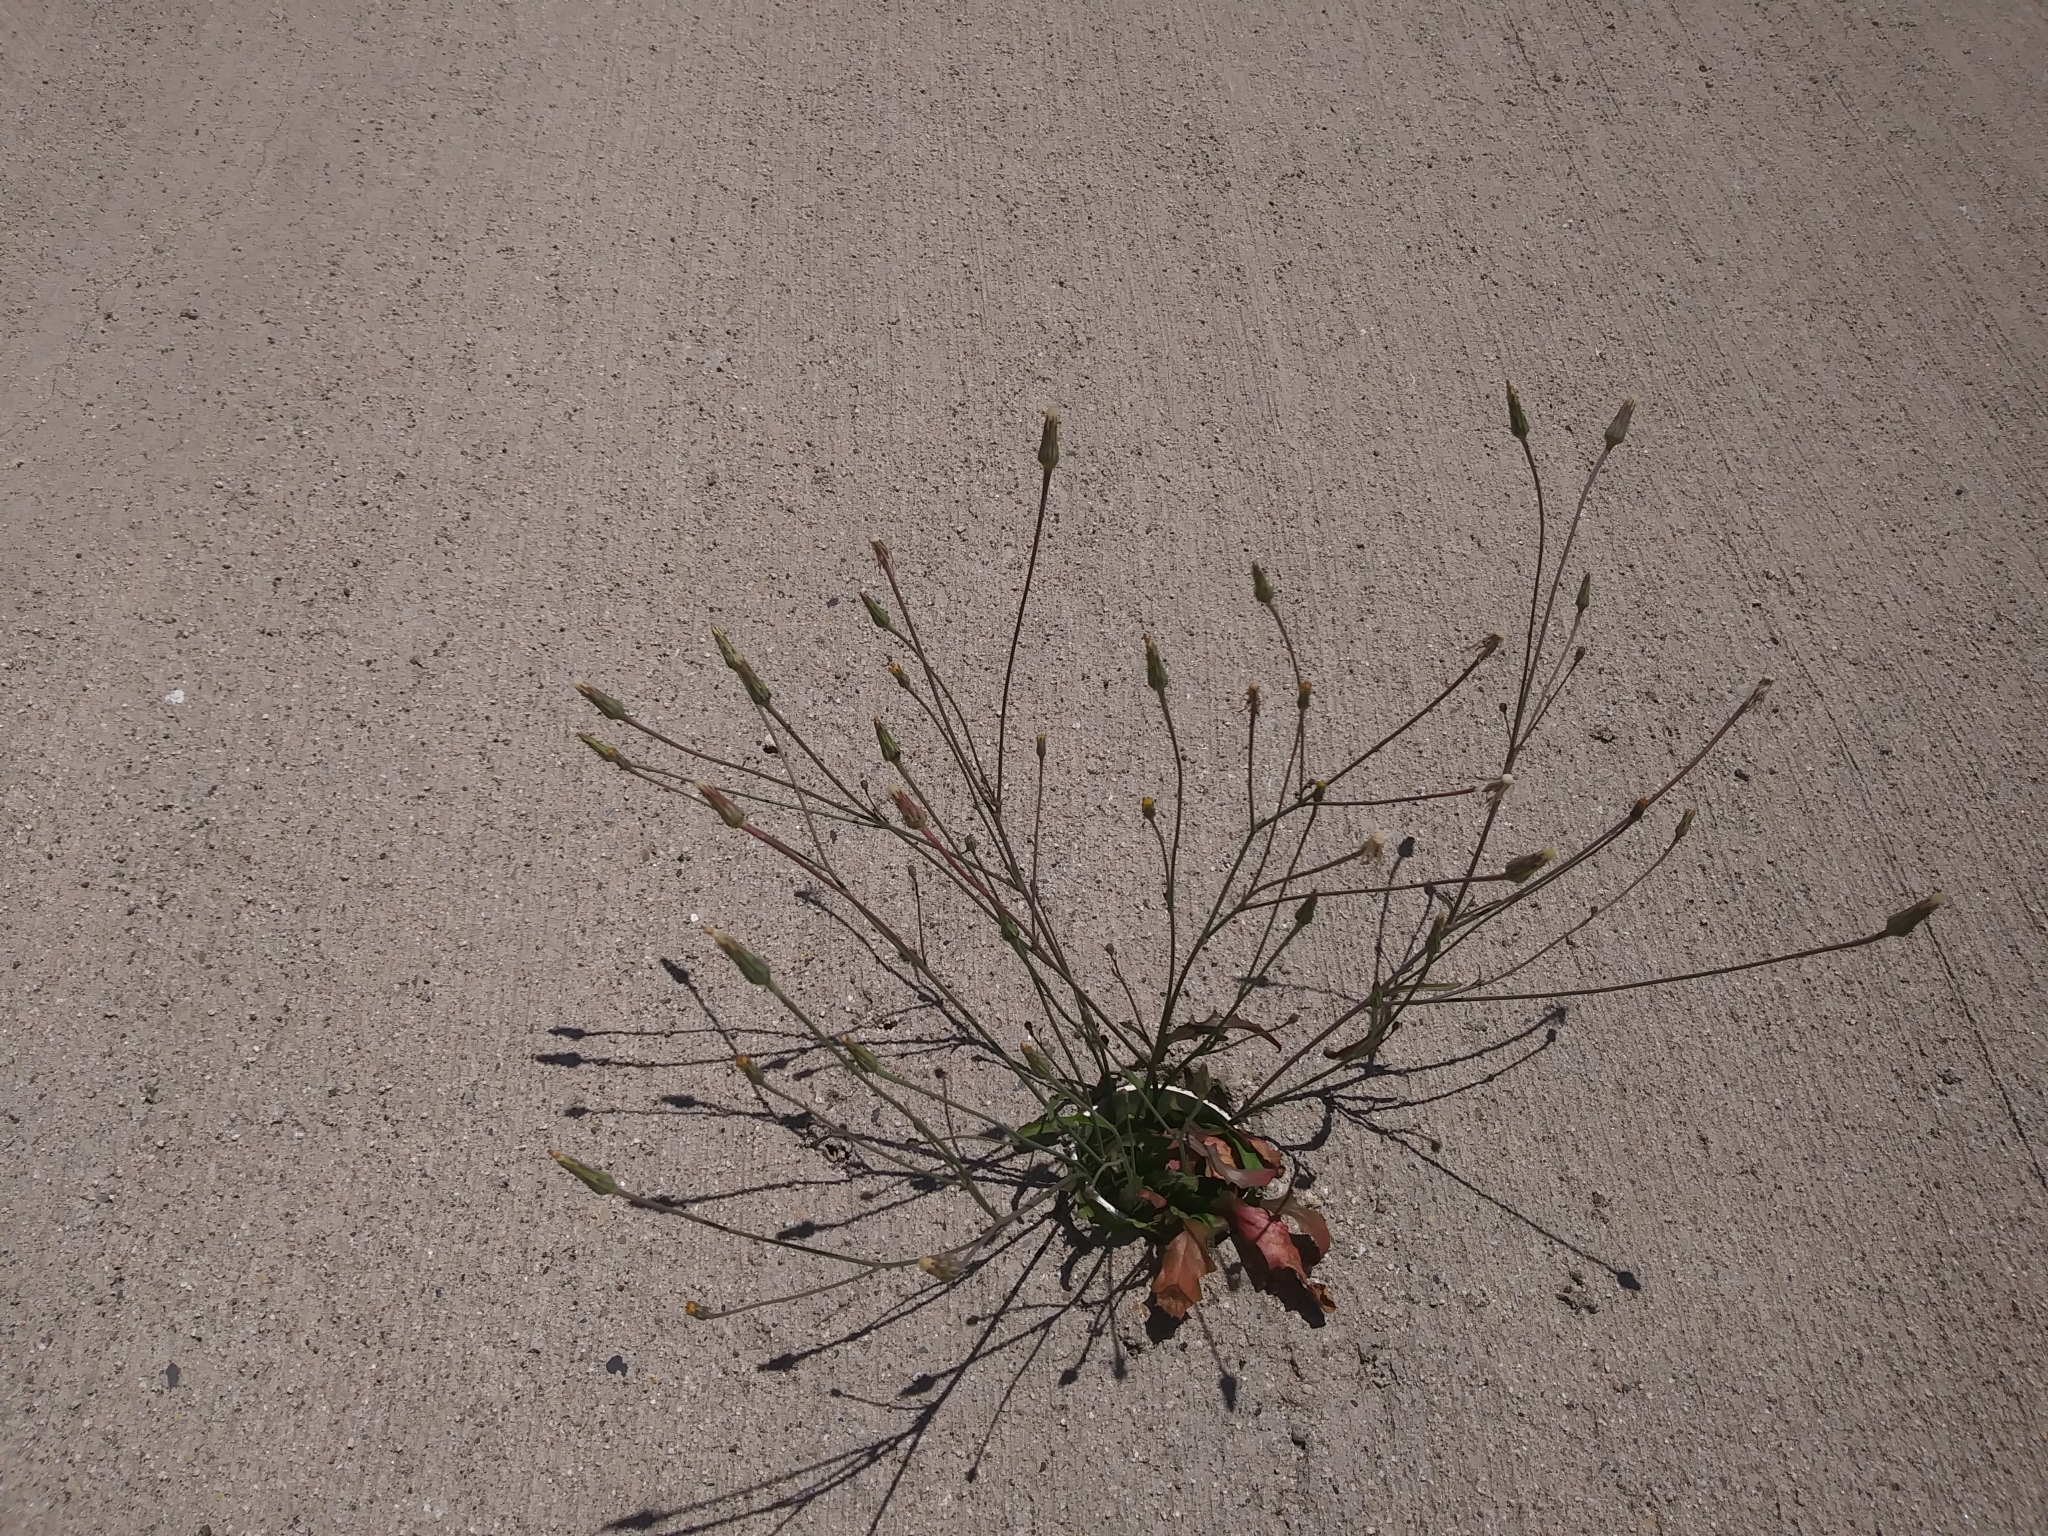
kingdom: Plantae
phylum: Tracheophyta
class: Magnoliopsida
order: Asterales
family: Asteraceae
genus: Hypochaeris
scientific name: Hypochaeris glabra
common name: Smooth catsear
